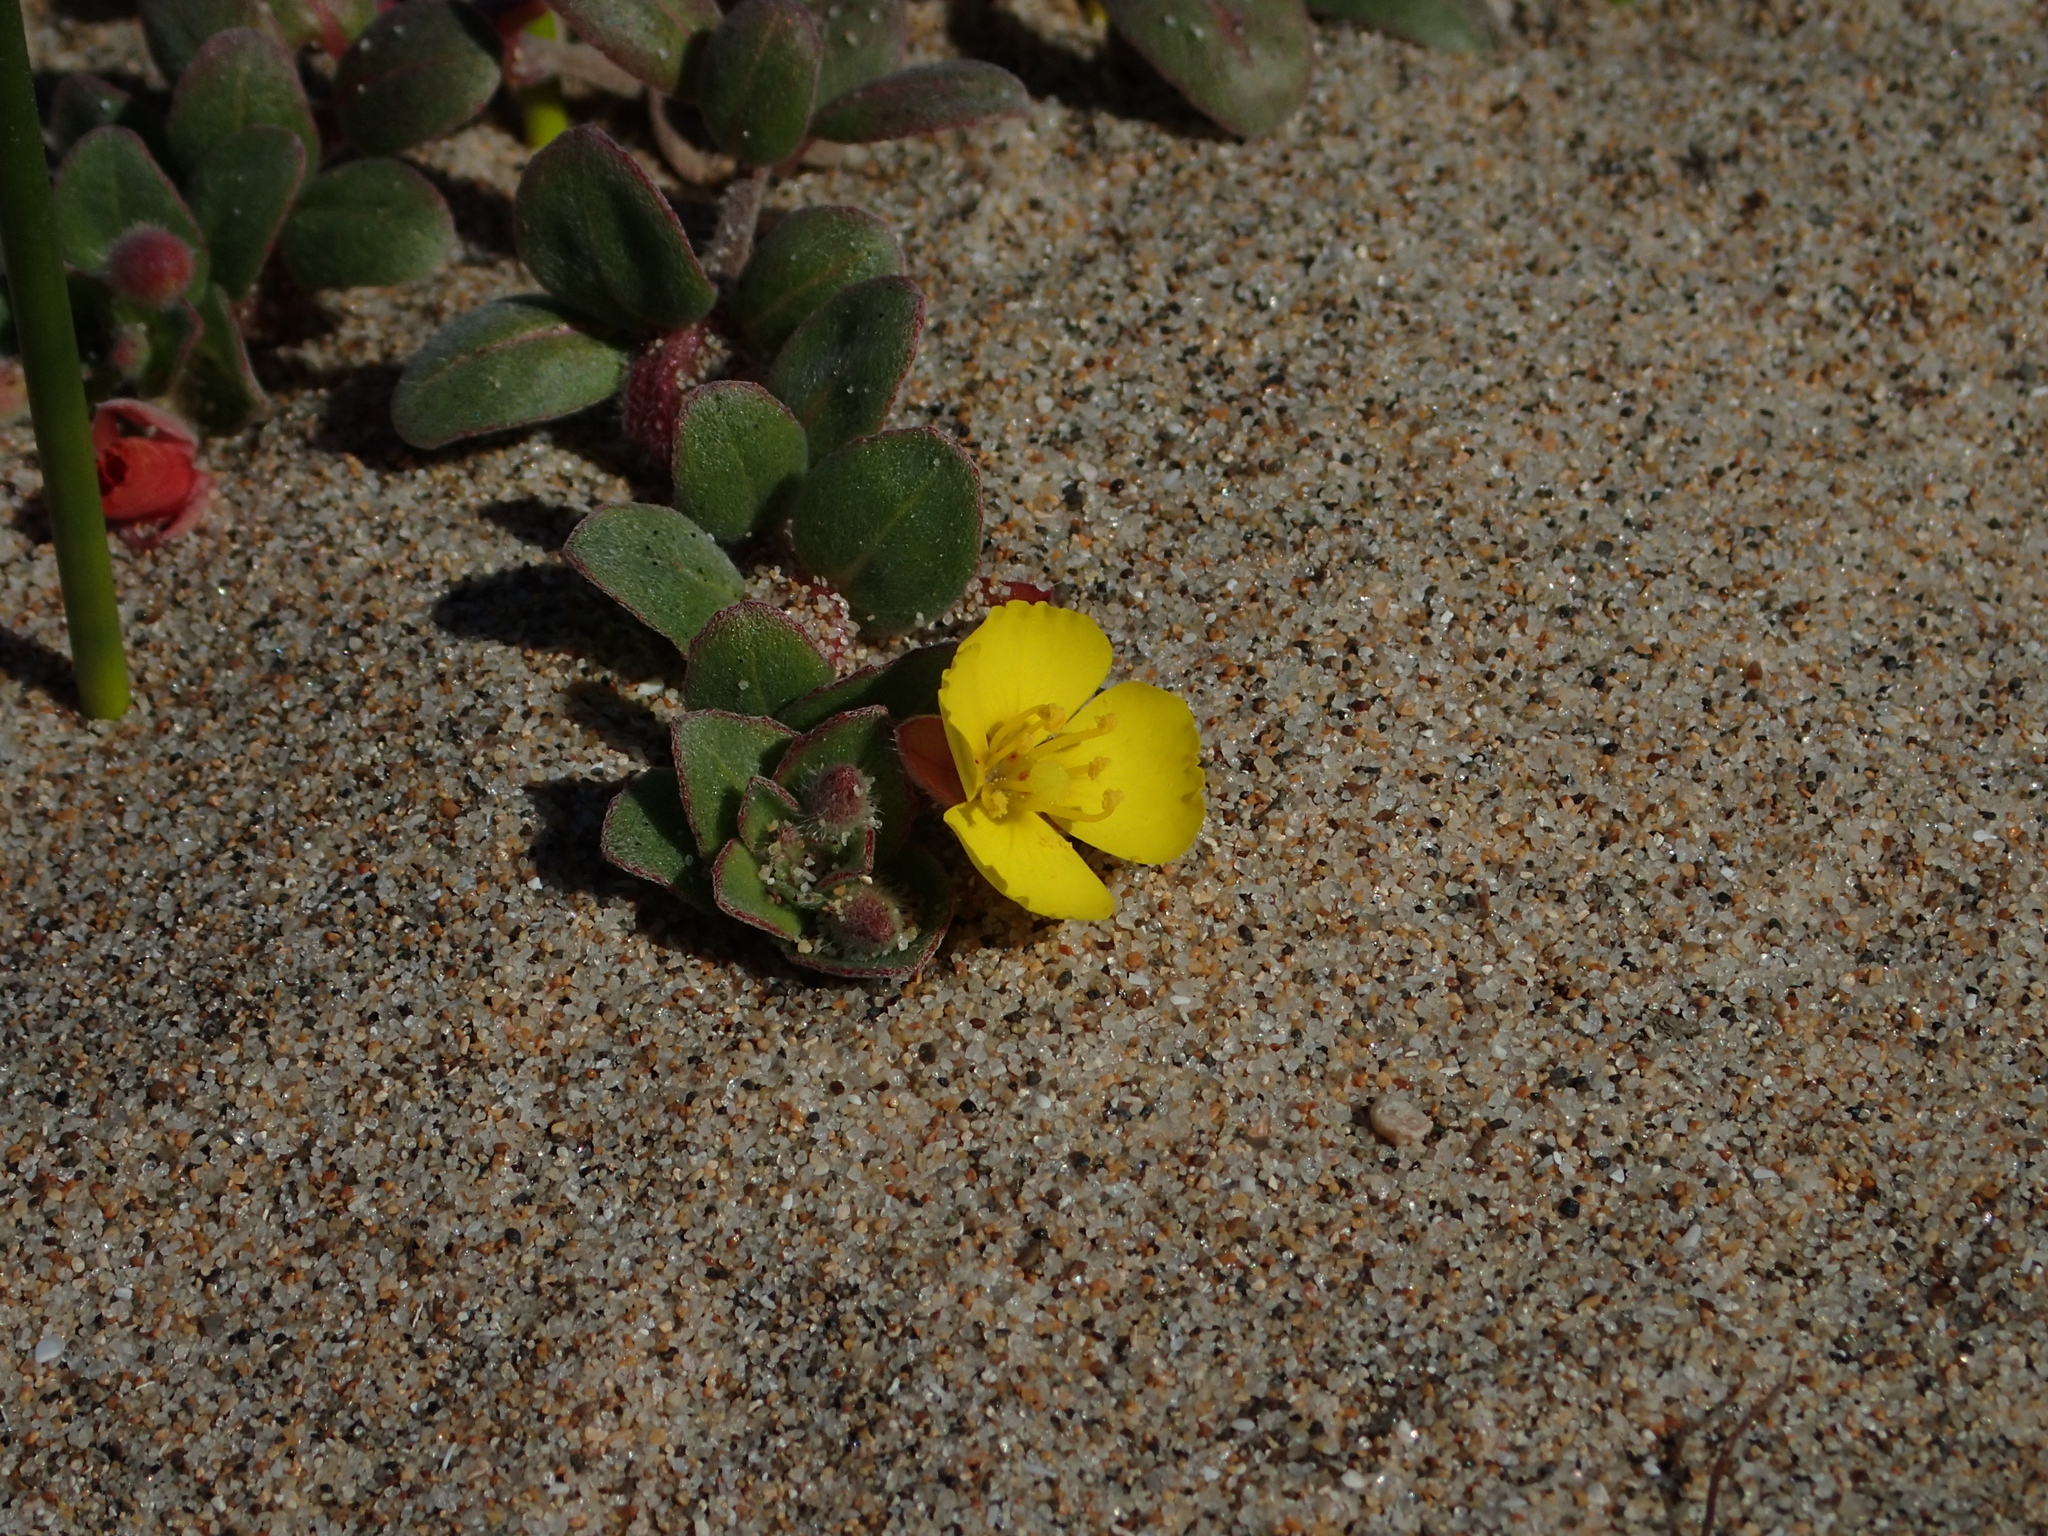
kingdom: Plantae
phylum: Tracheophyta
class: Magnoliopsida
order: Myrtales
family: Onagraceae
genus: Camissoniopsis
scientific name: Camissoniopsis cheiranthifolia
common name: Beach suncup
